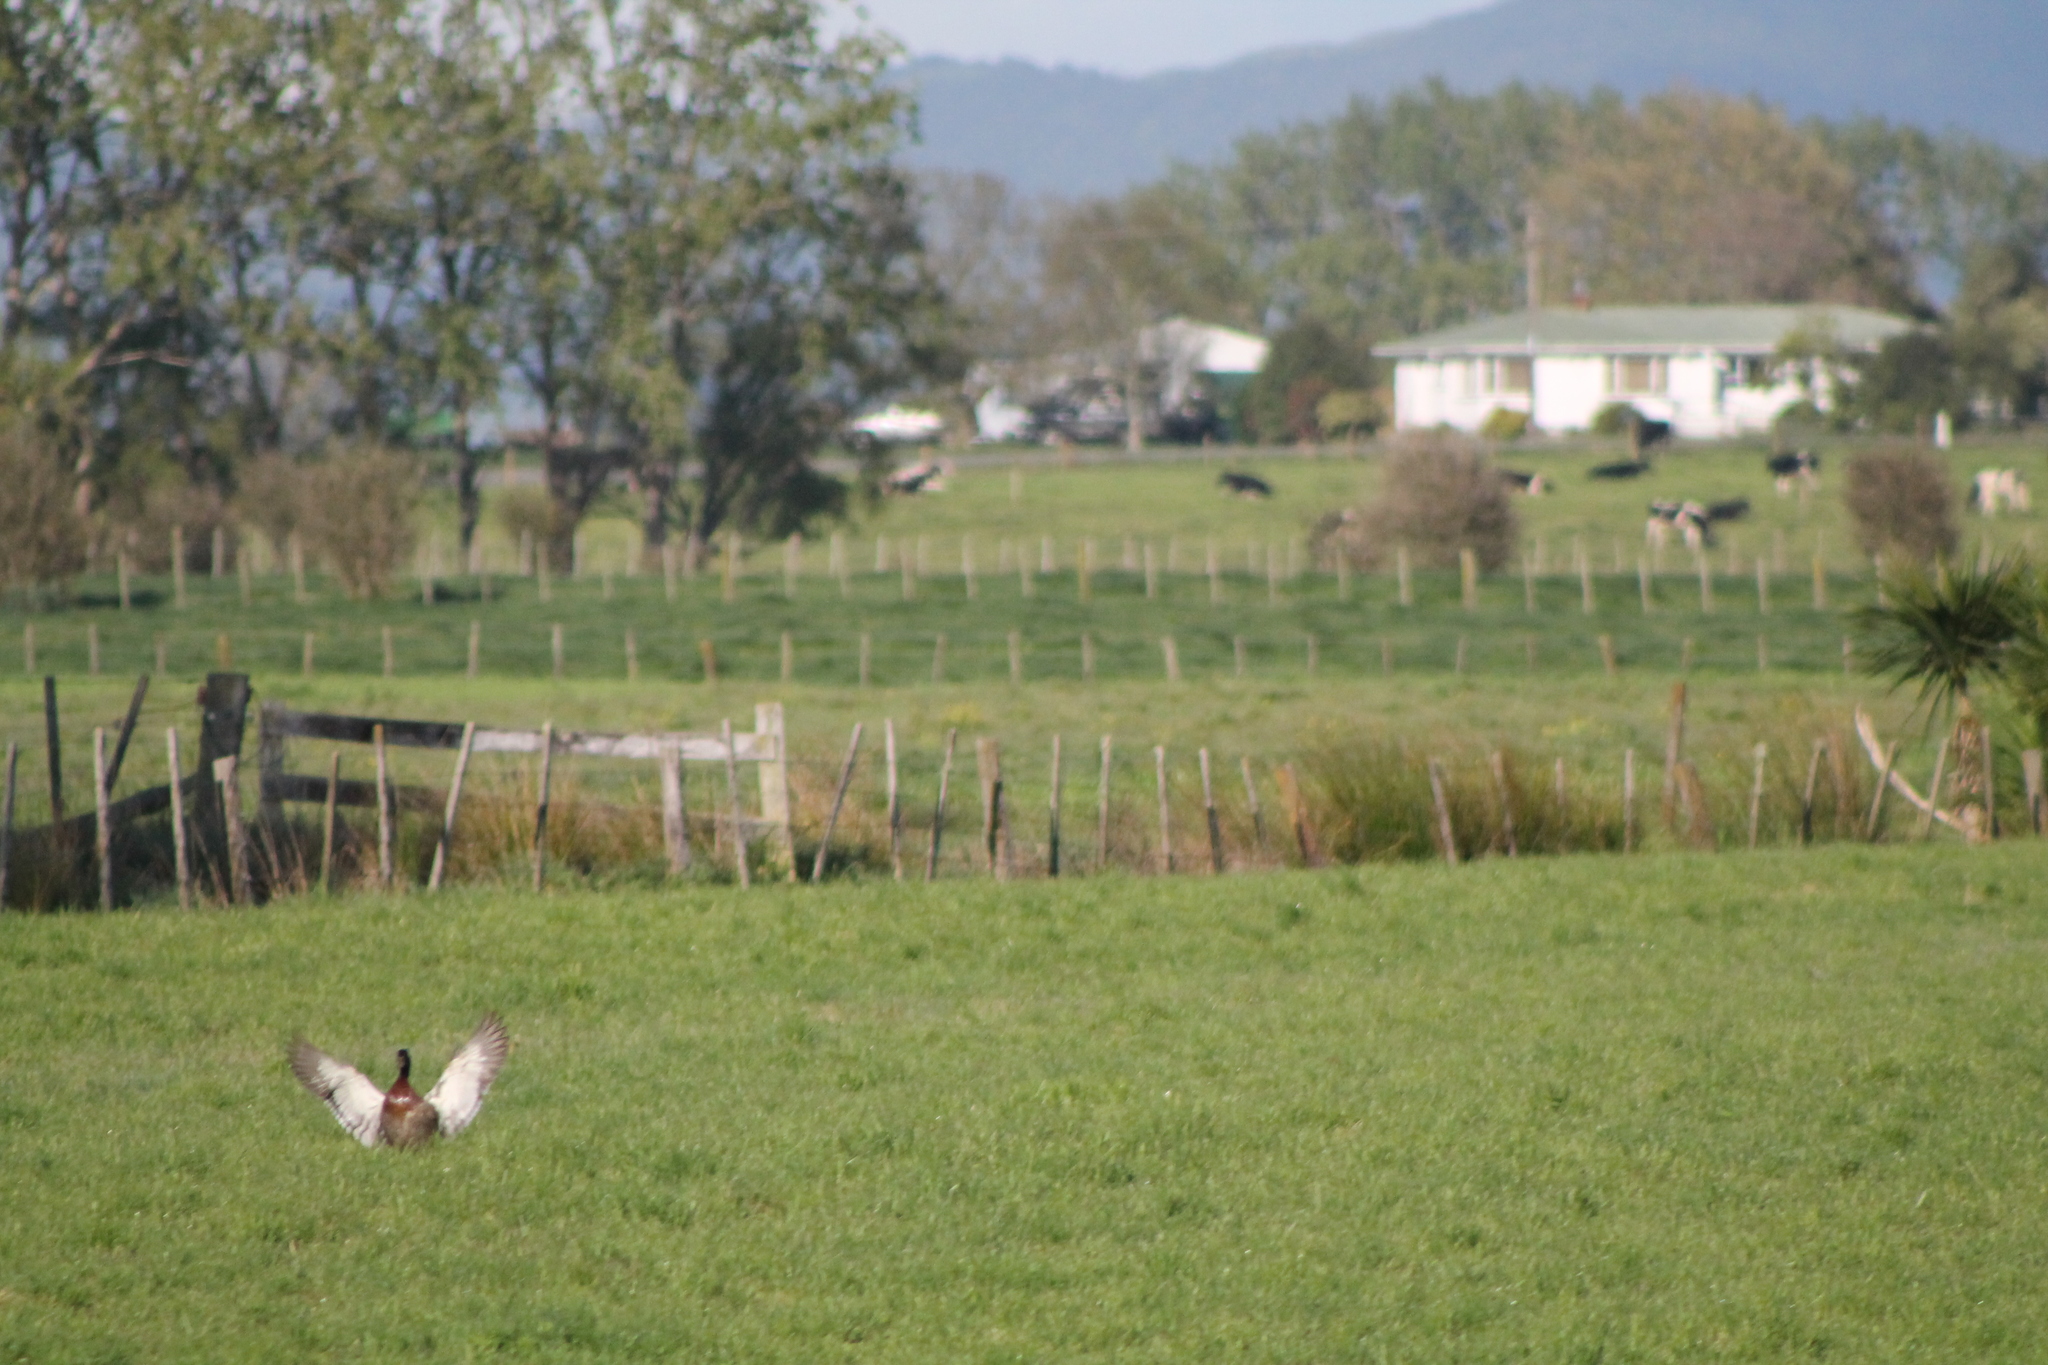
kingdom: Animalia
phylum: Chordata
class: Aves
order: Anseriformes
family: Anatidae
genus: Anas
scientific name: Anas platyrhynchos
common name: Mallard
